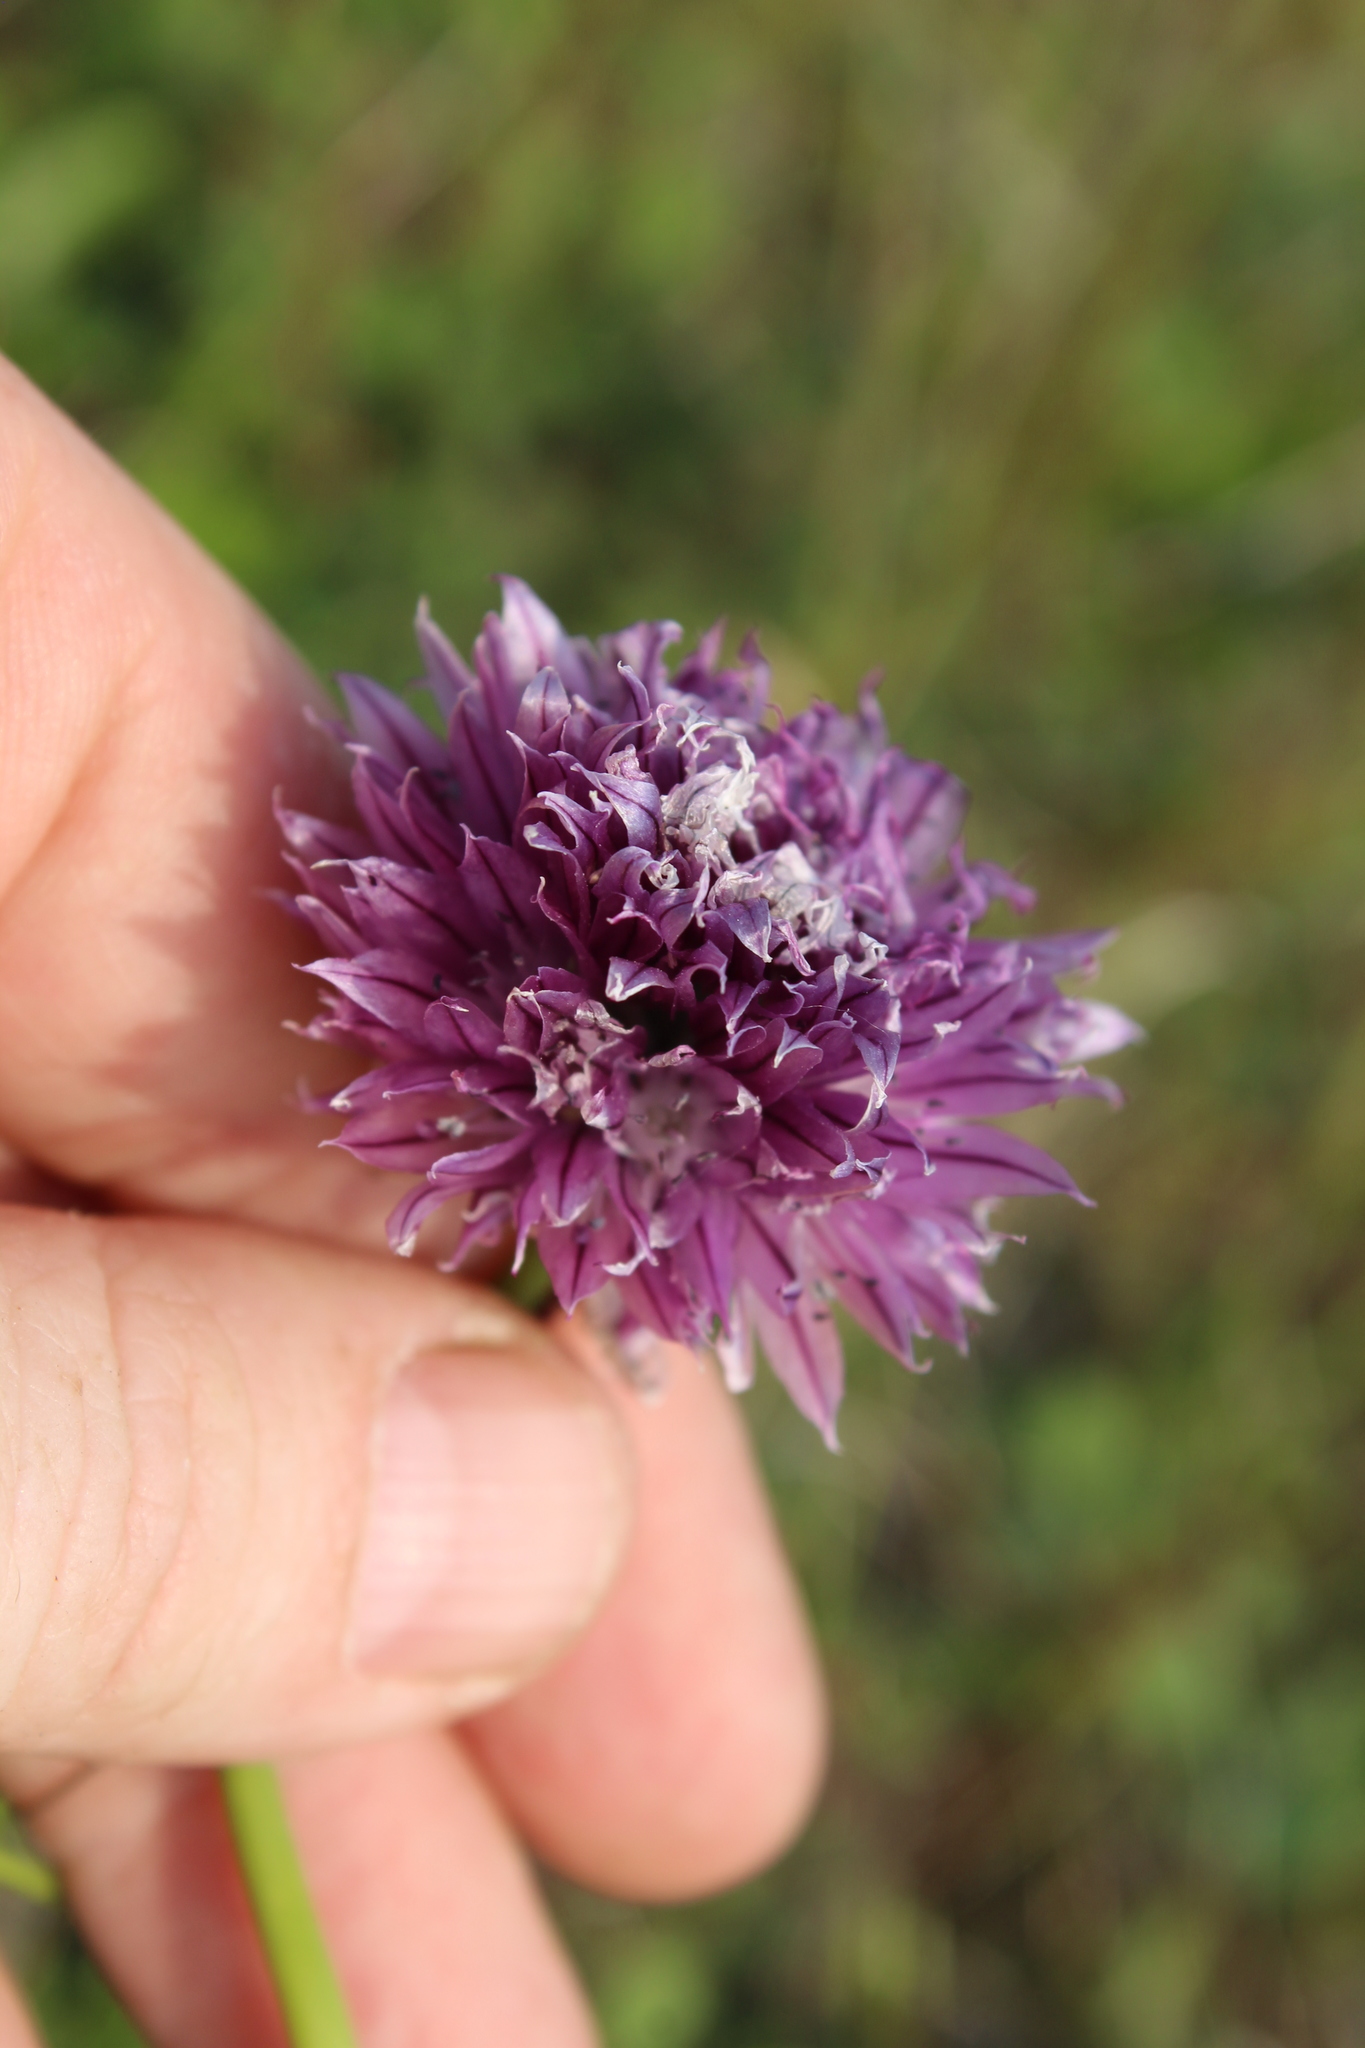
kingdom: Plantae
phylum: Tracheophyta
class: Liliopsida
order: Asparagales
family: Amaryllidaceae
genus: Allium
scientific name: Allium schoenoprasum
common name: Chives
